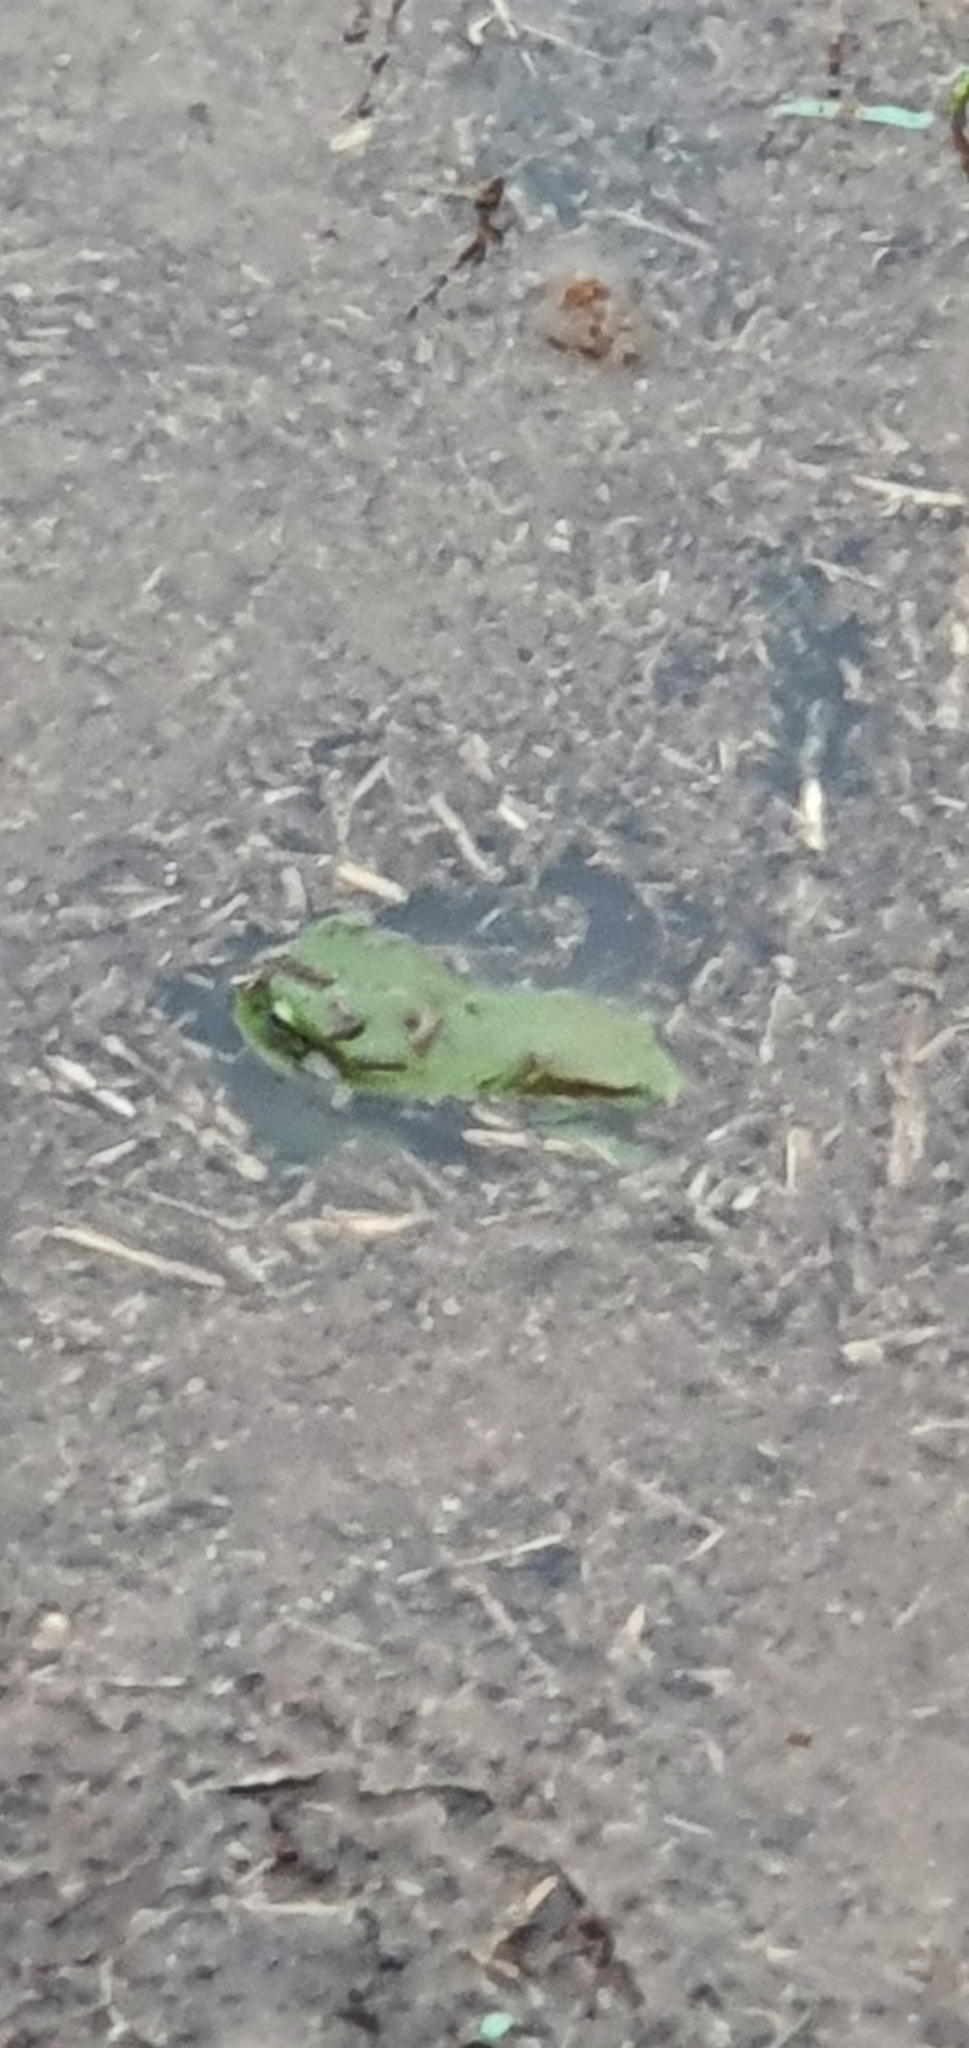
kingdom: Animalia
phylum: Chordata
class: Amphibia
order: Anura
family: Pelodryadidae
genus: Ranoidea
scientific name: Ranoidea caerulea
